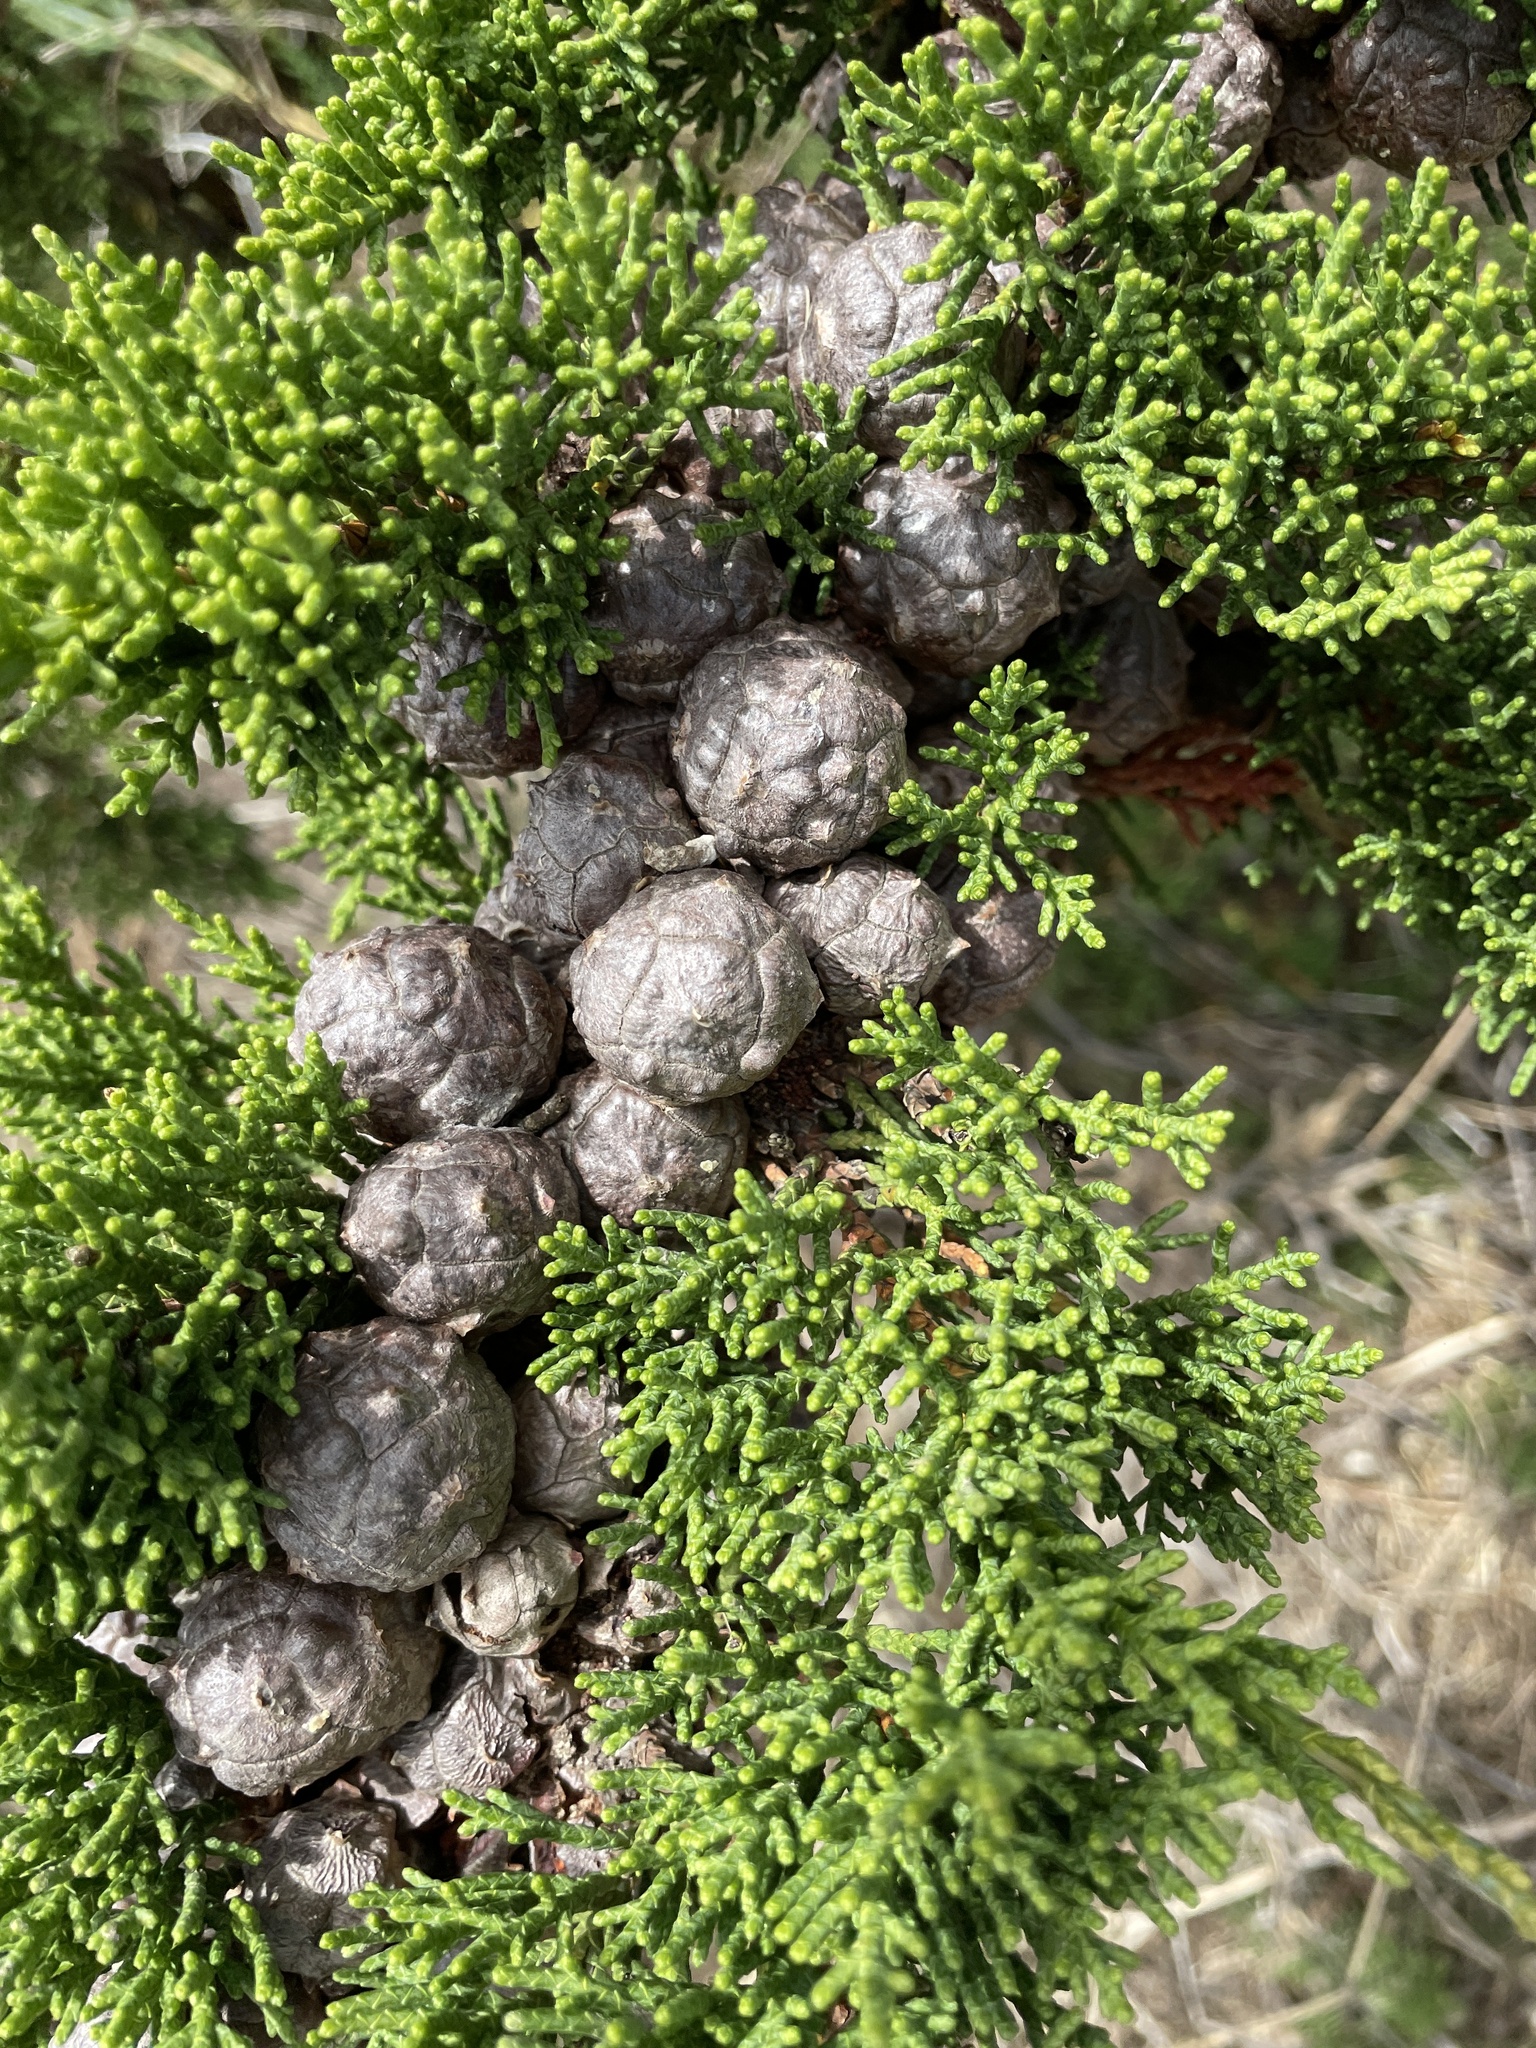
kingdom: Plantae
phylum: Tracheophyta
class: Pinopsida
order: Pinales
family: Cupressaceae
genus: Cupressus
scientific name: Cupressus macrocarpa
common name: Monterey cypress
